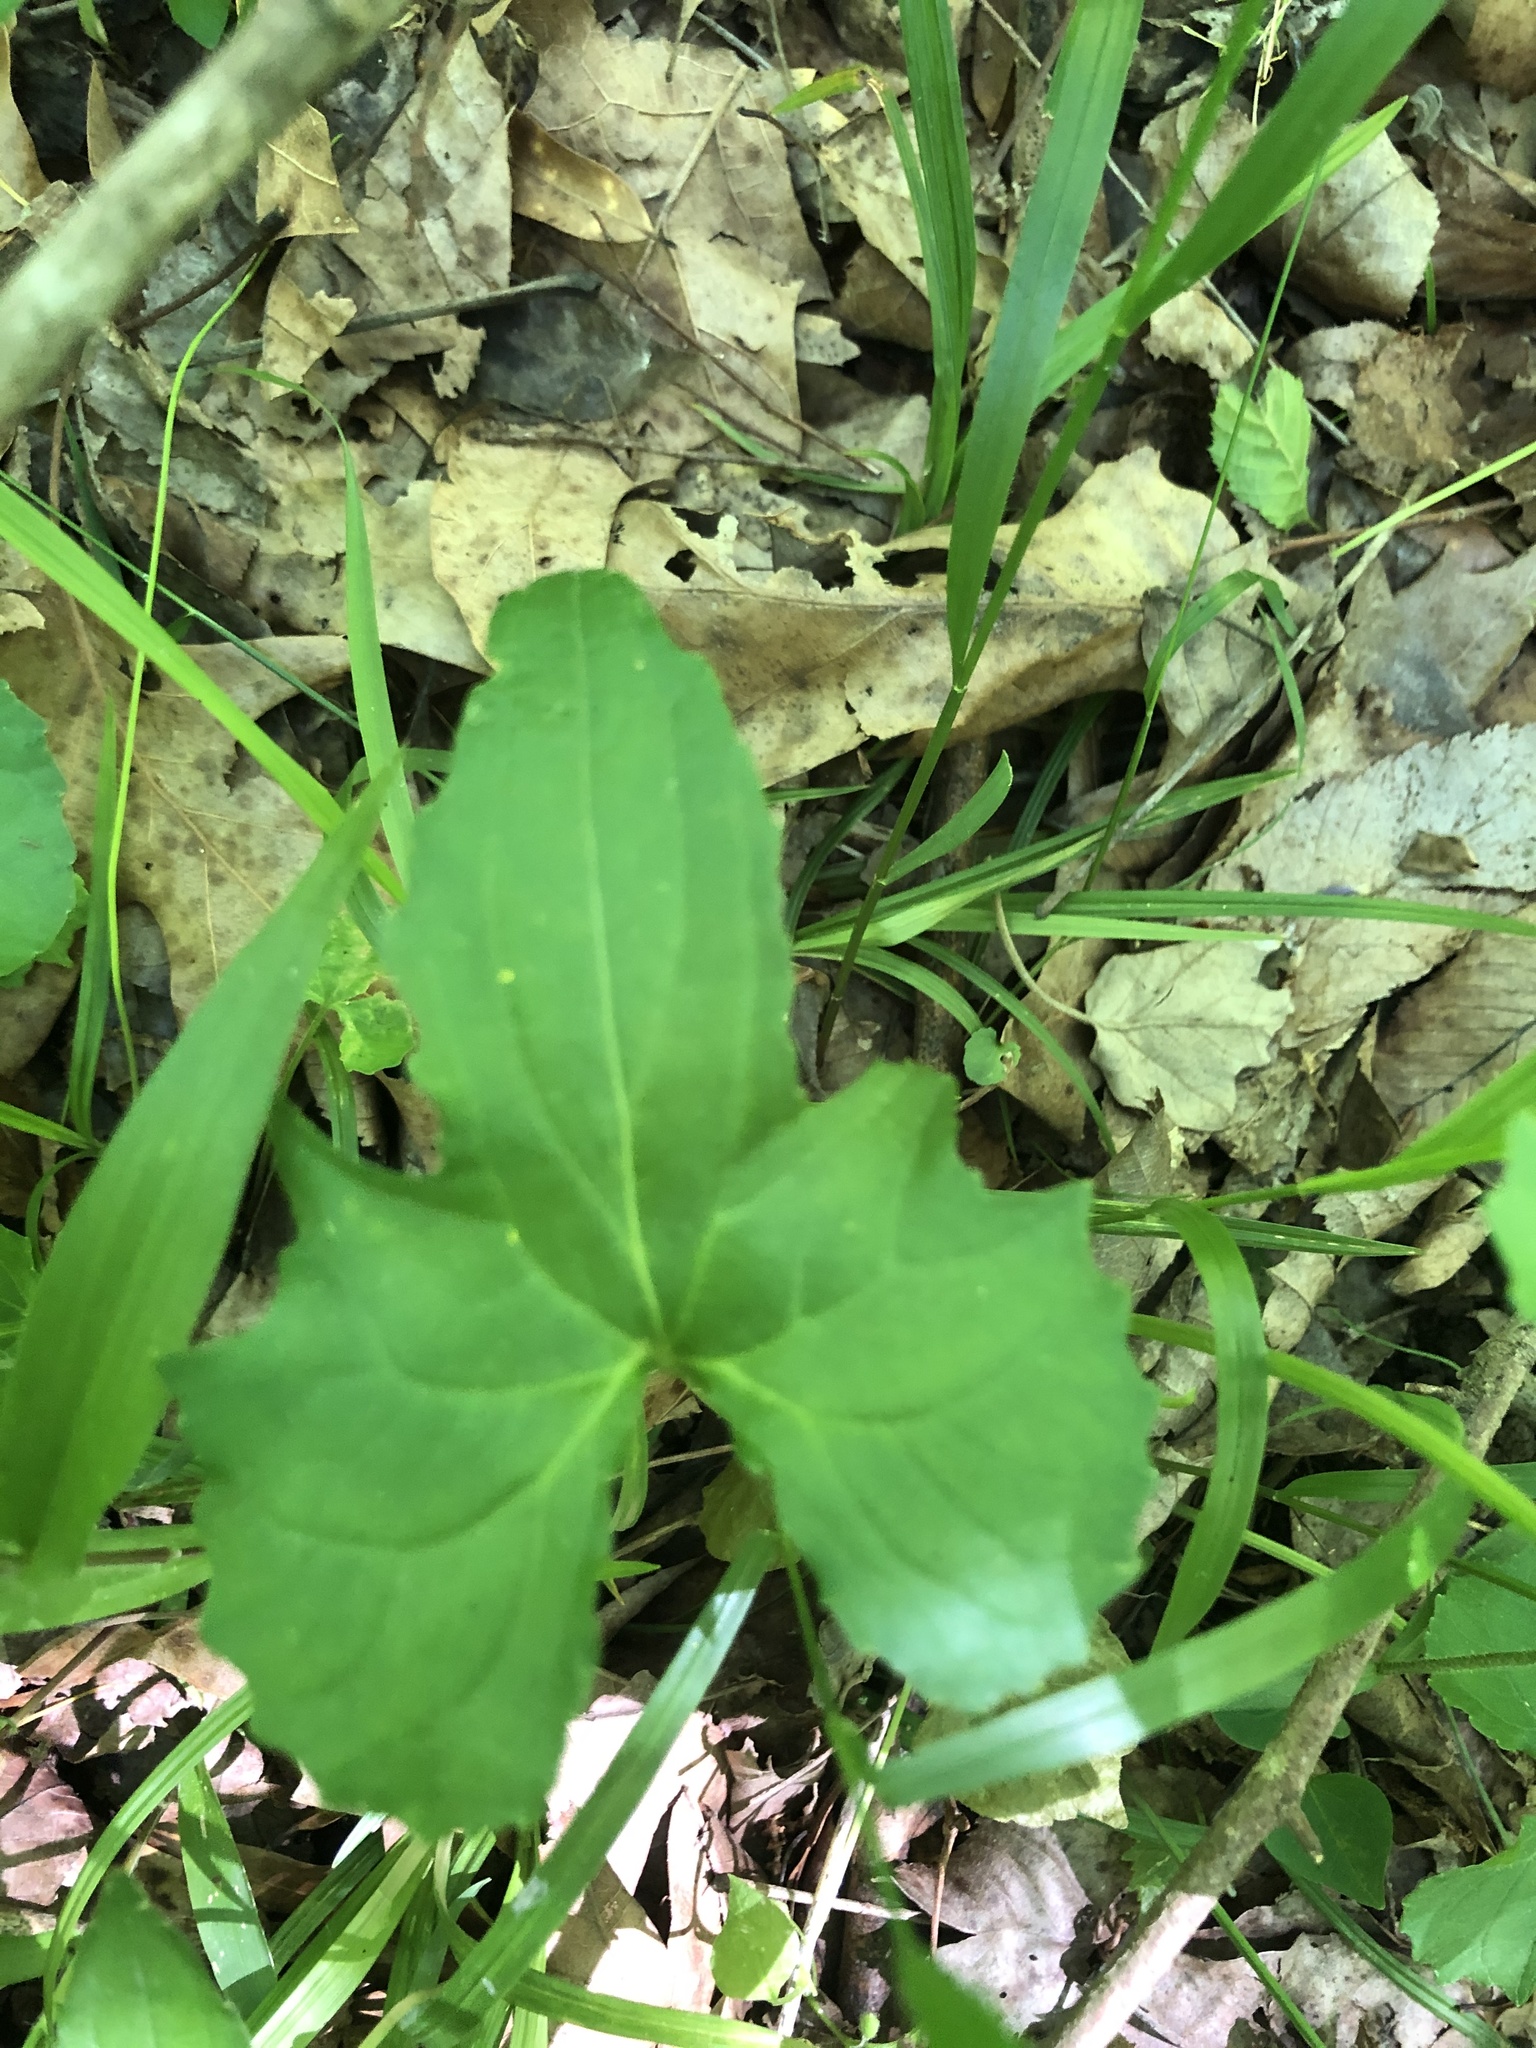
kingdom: Plantae
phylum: Tracheophyta
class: Magnoliopsida
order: Malpighiales
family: Violaceae
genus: Viola
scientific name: Viola edulis
